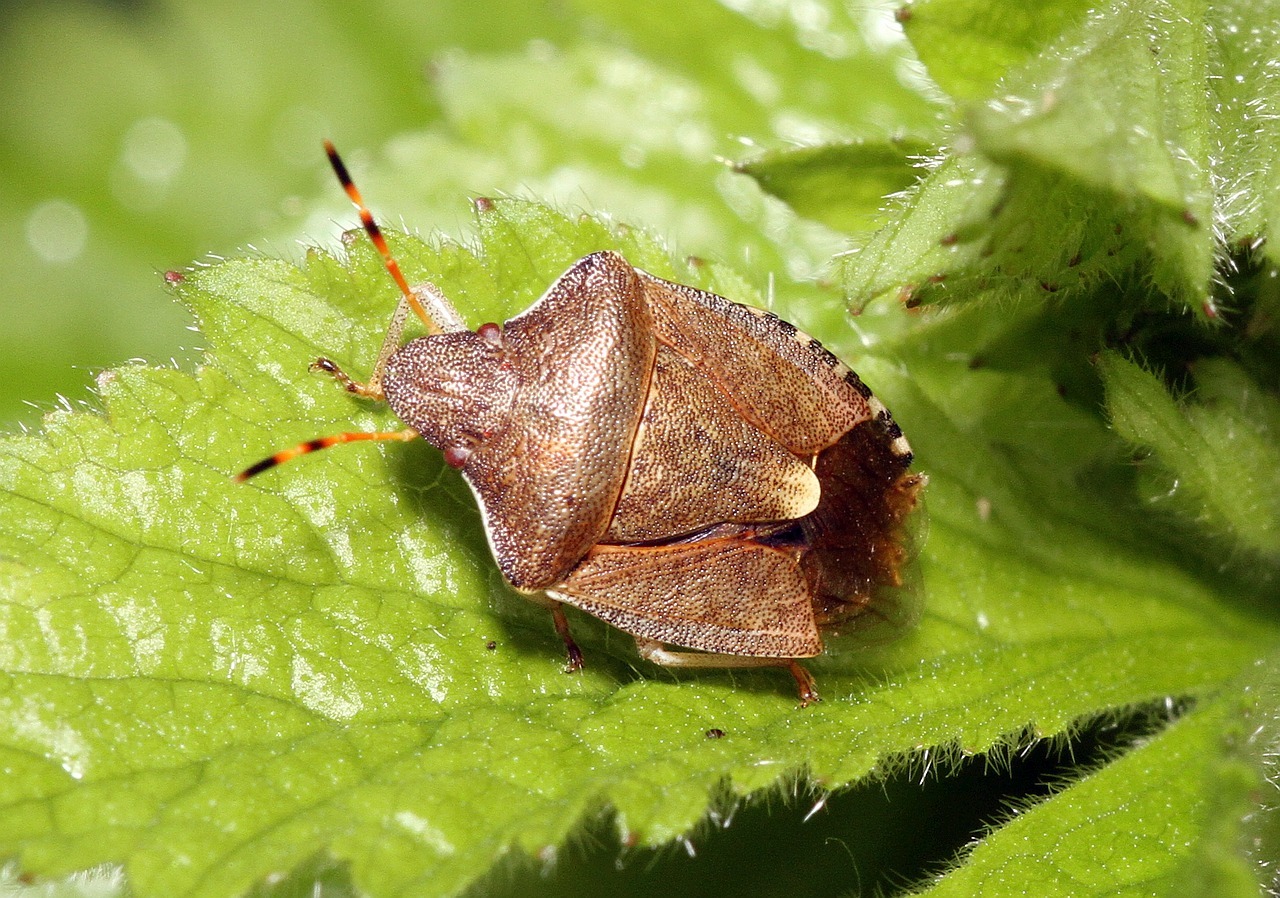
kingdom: Animalia
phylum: Arthropoda
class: Insecta
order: Hemiptera
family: Pentatomidae
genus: Holcostethus
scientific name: Holcostethus strictus
